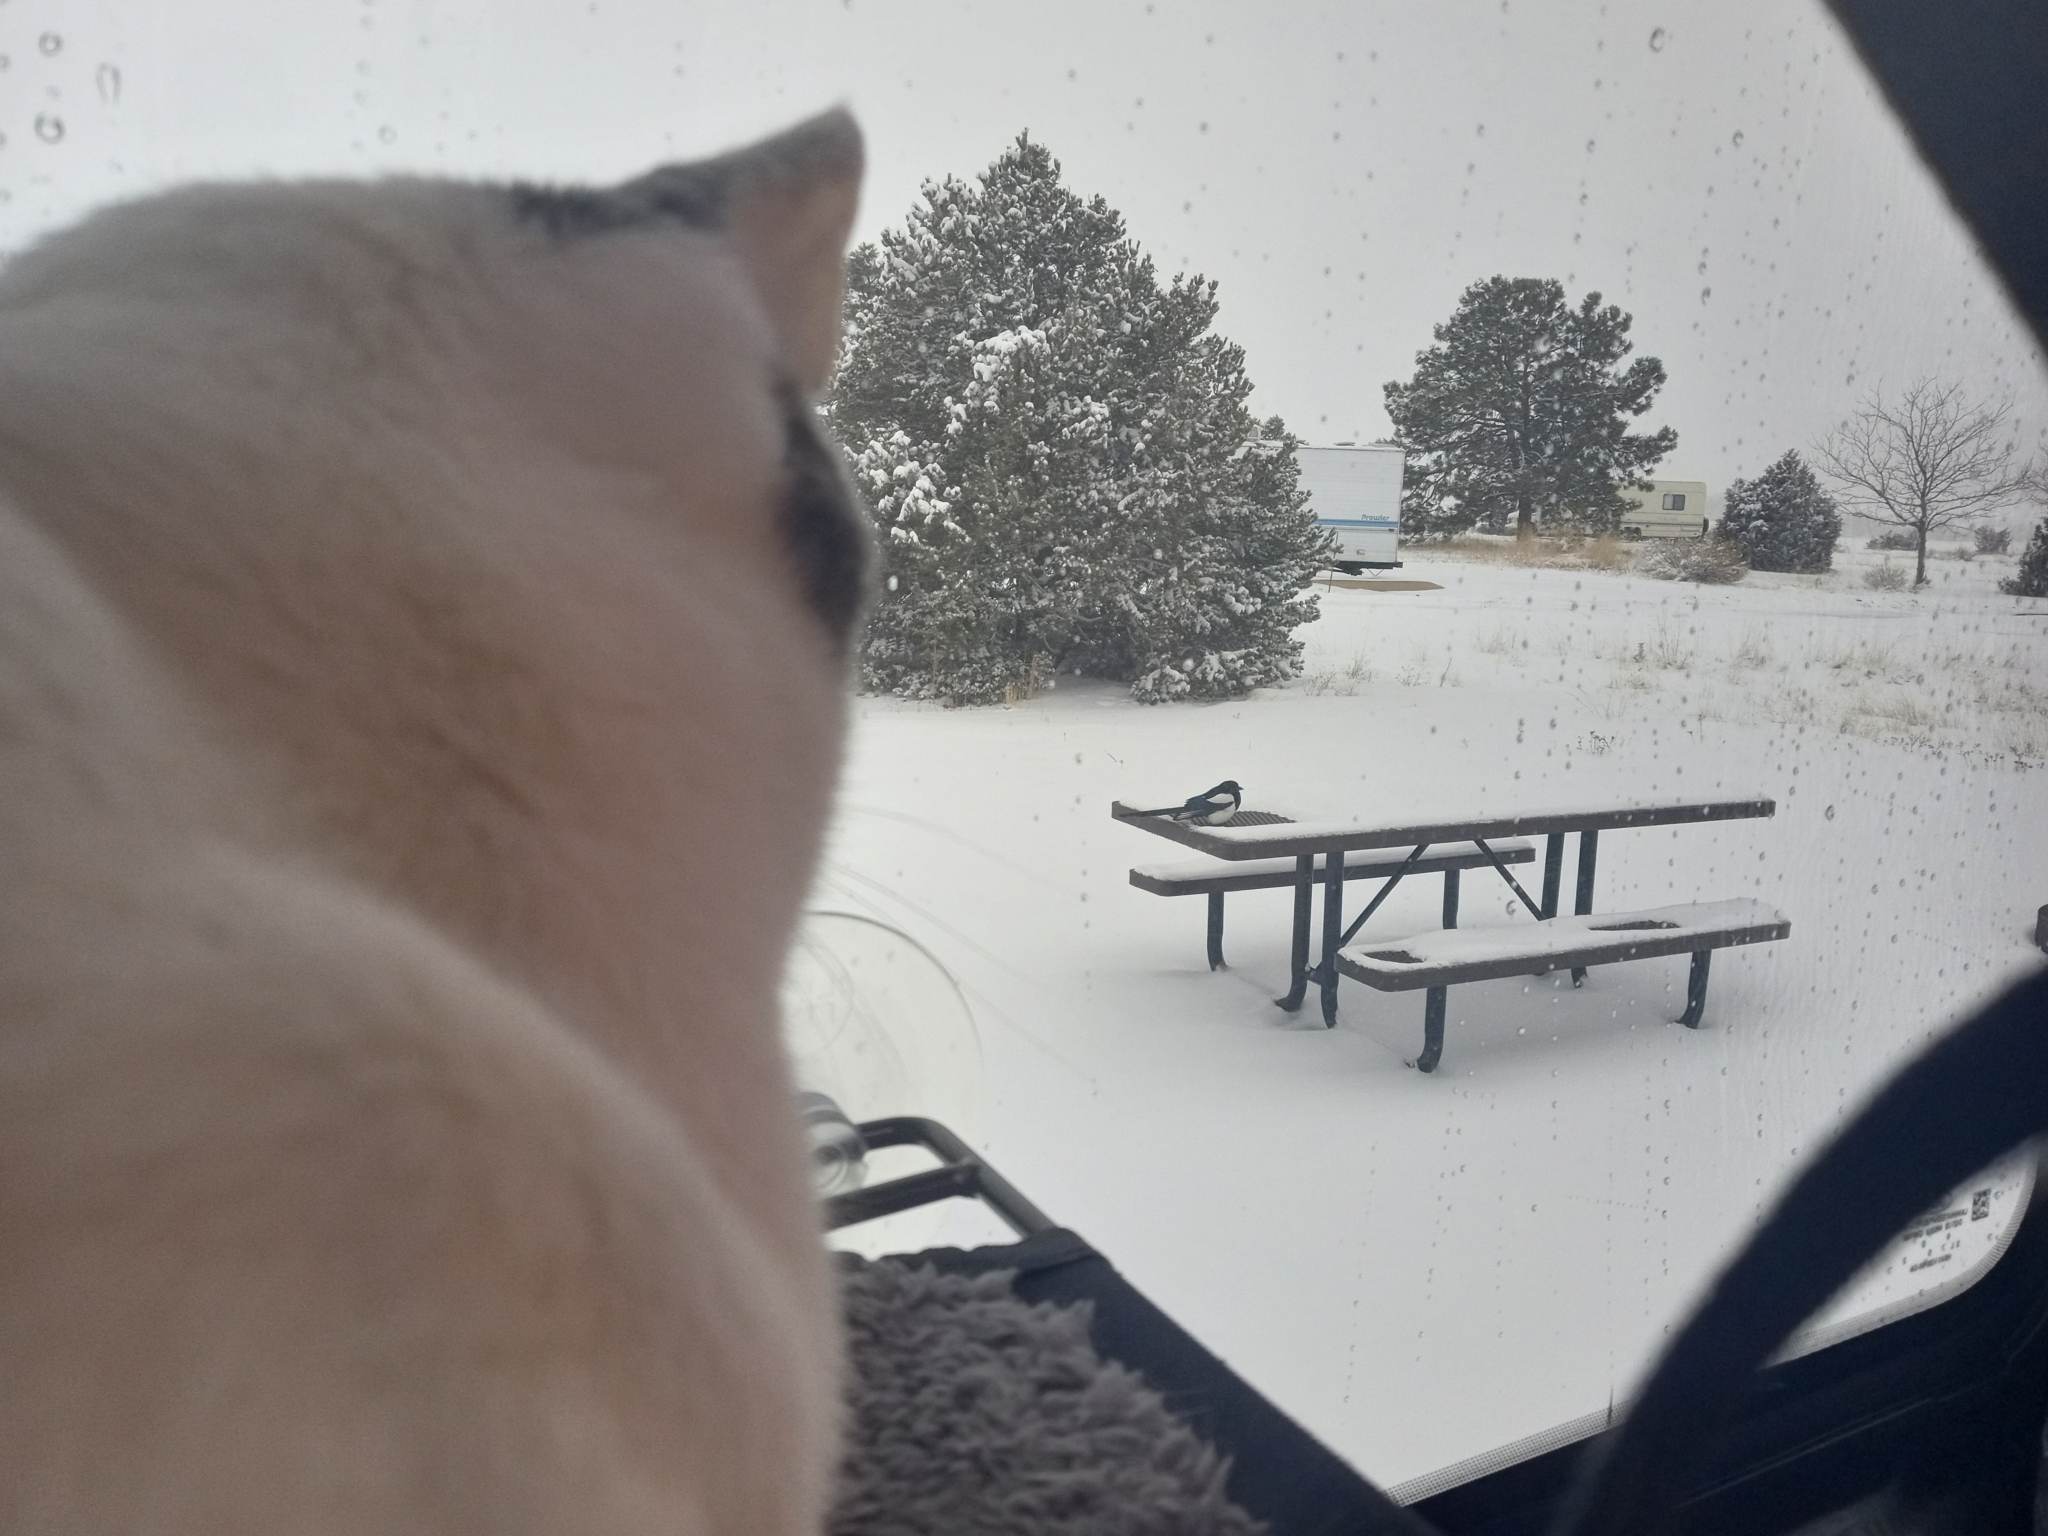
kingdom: Animalia
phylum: Chordata
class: Aves
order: Passeriformes
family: Corvidae
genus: Pica
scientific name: Pica hudsonia
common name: Black-billed magpie
